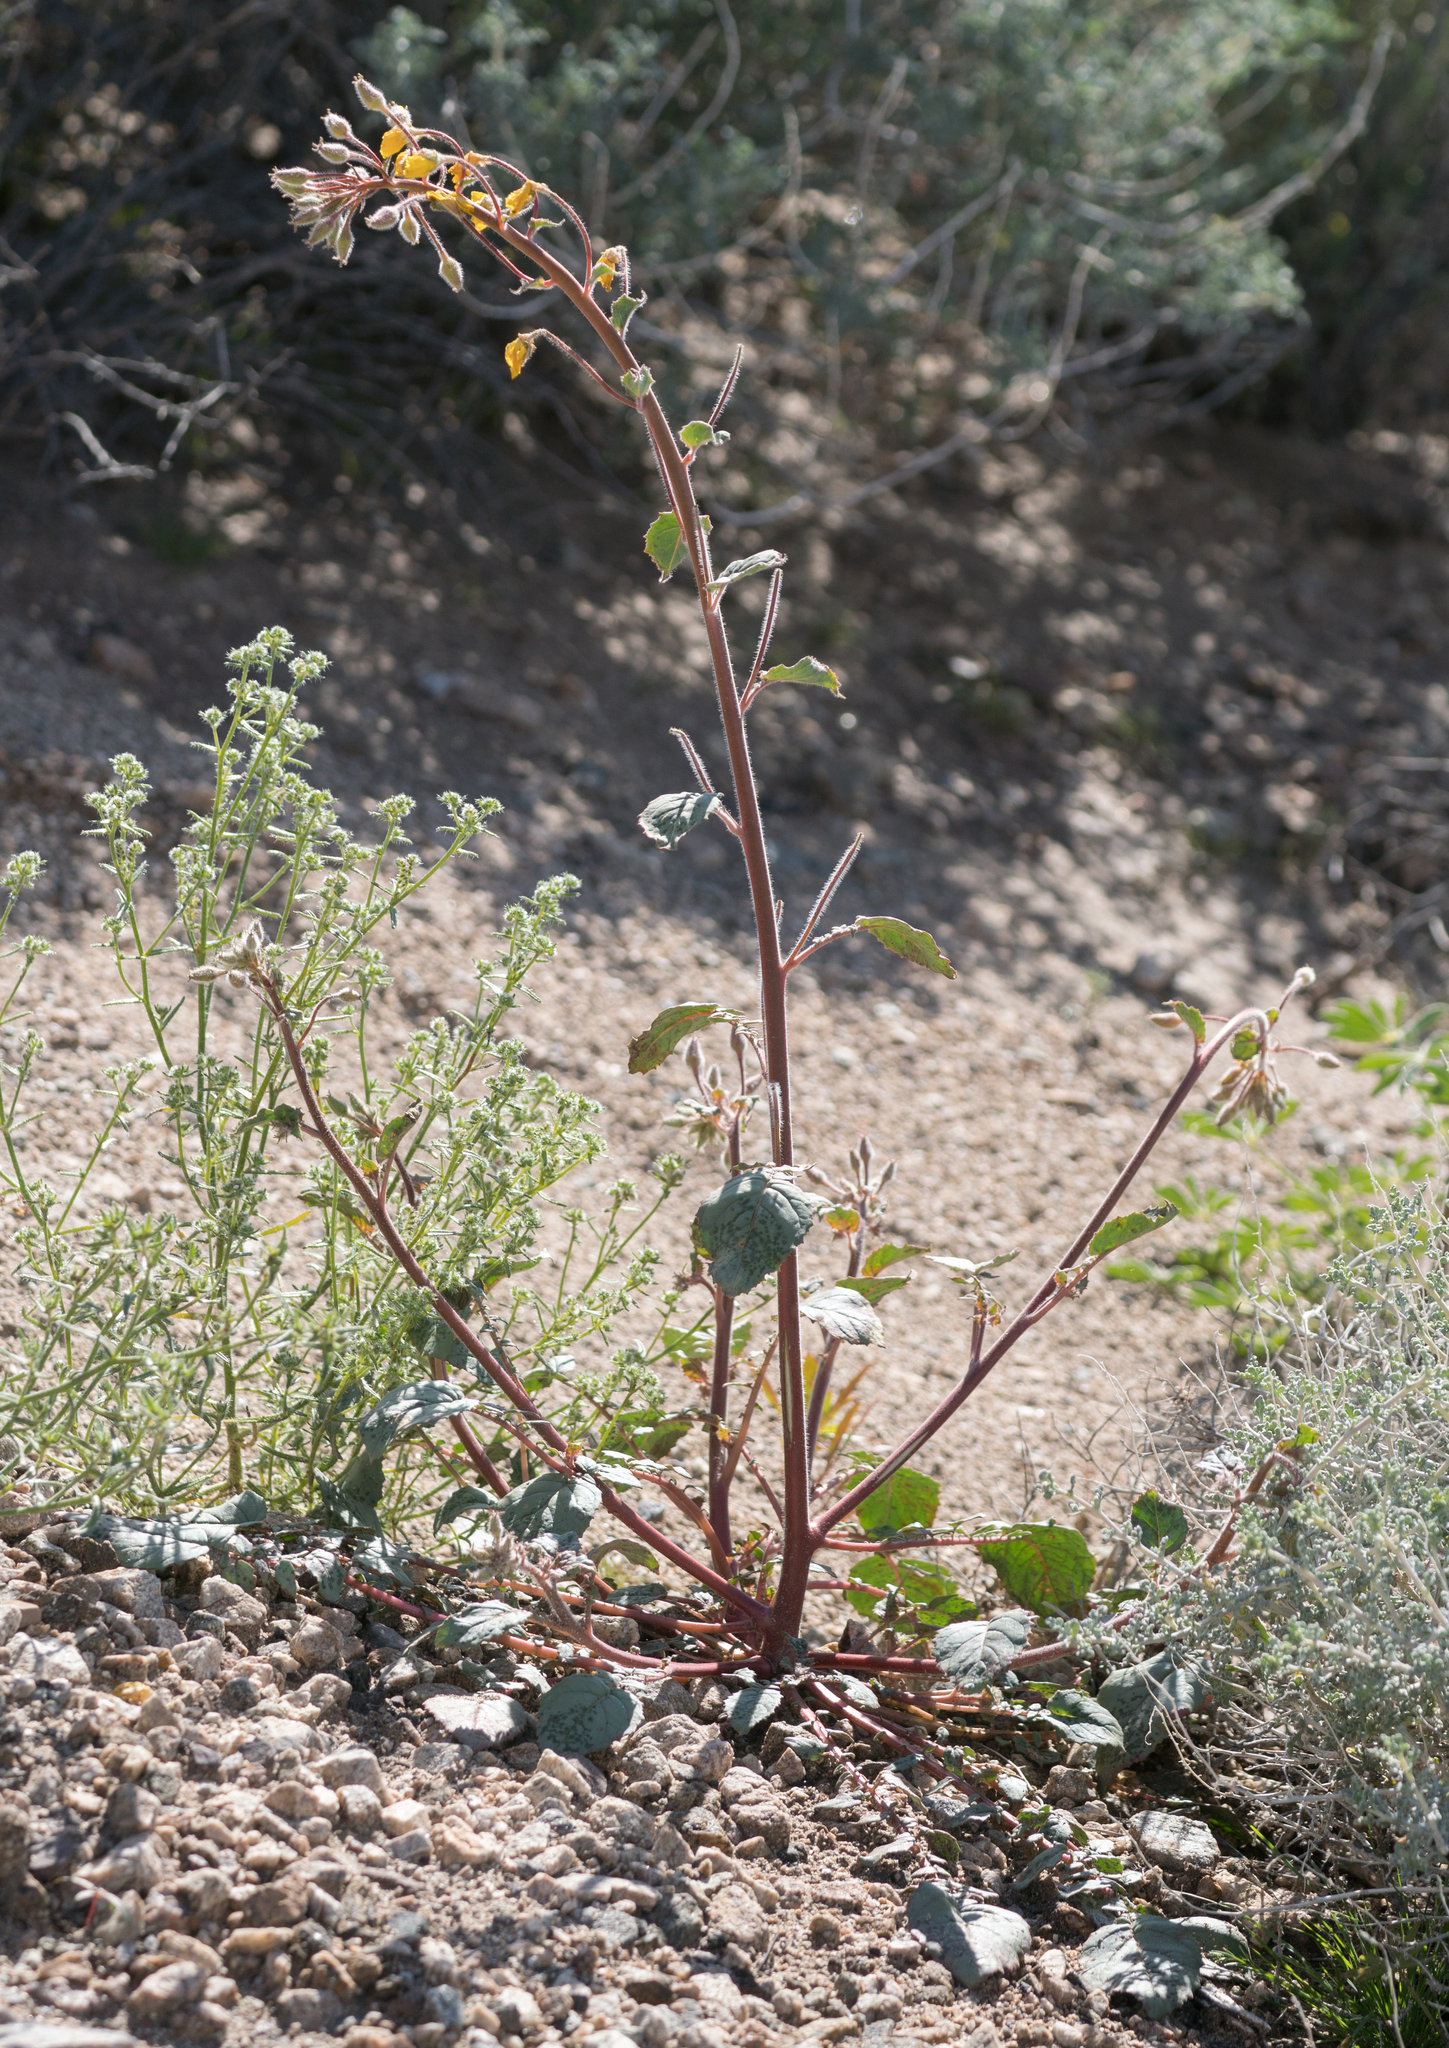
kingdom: Plantae
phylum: Tracheophyta
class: Magnoliopsida
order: Myrtales
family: Onagraceae
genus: Chylismia
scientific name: Chylismia brevipes
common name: Yellow cups
